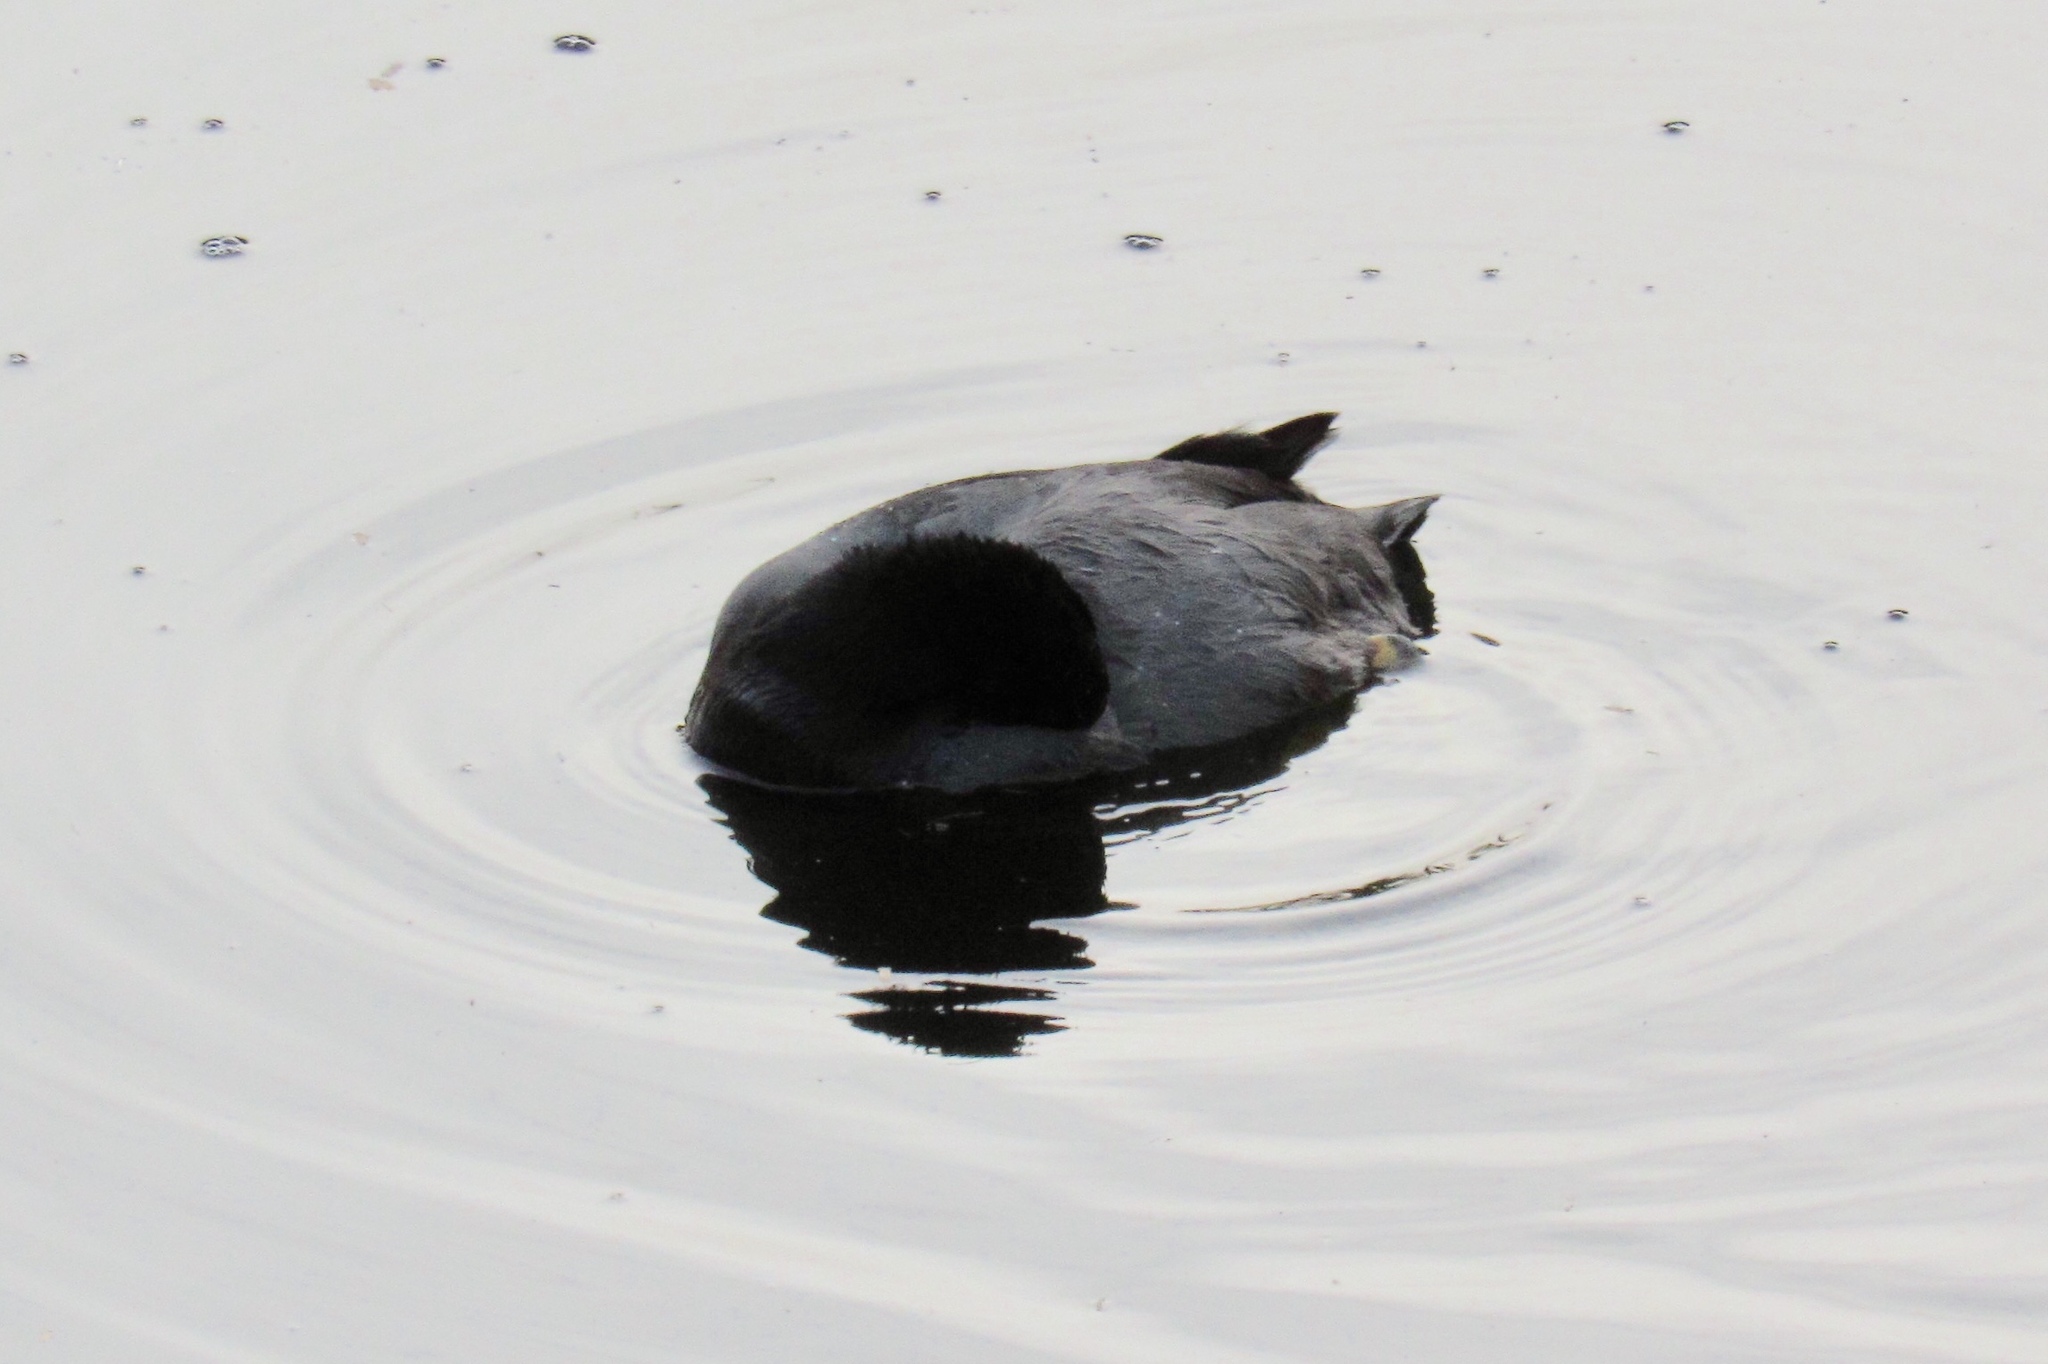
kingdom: Animalia
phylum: Chordata
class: Aves
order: Gruiformes
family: Rallidae
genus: Fulica
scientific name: Fulica americana
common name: American coot
